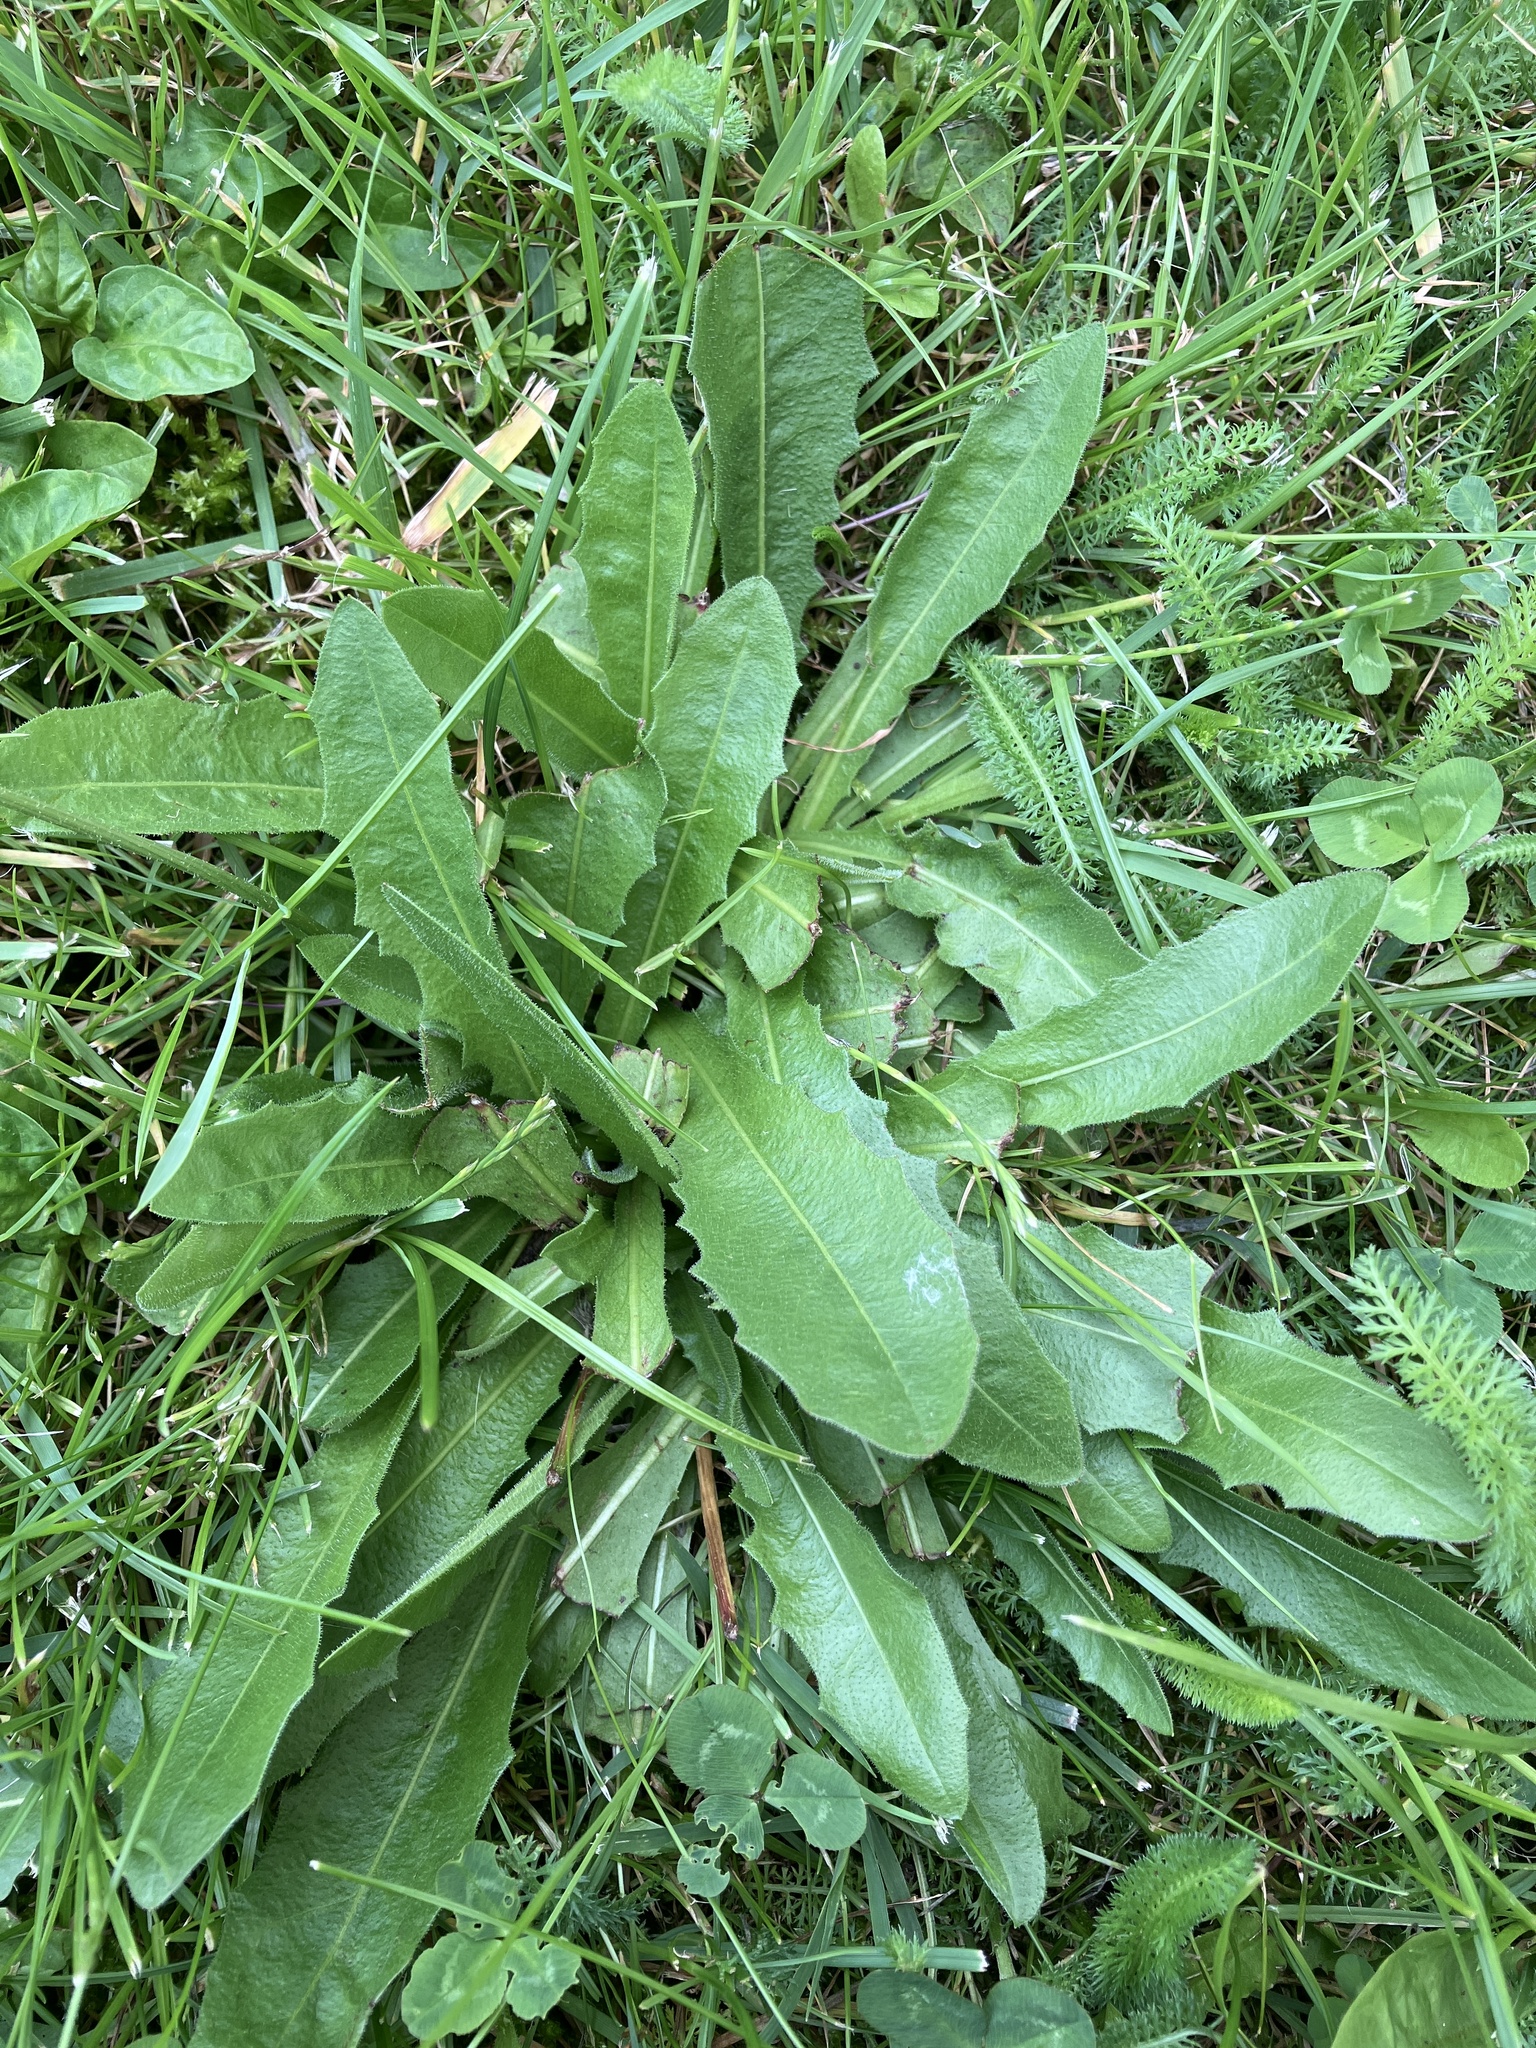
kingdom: Plantae
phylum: Tracheophyta
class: Magnoliopsida
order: Asterales
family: Asteraceae
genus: Leontodon
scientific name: Leontodon hispidus
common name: Rough hawkbit
